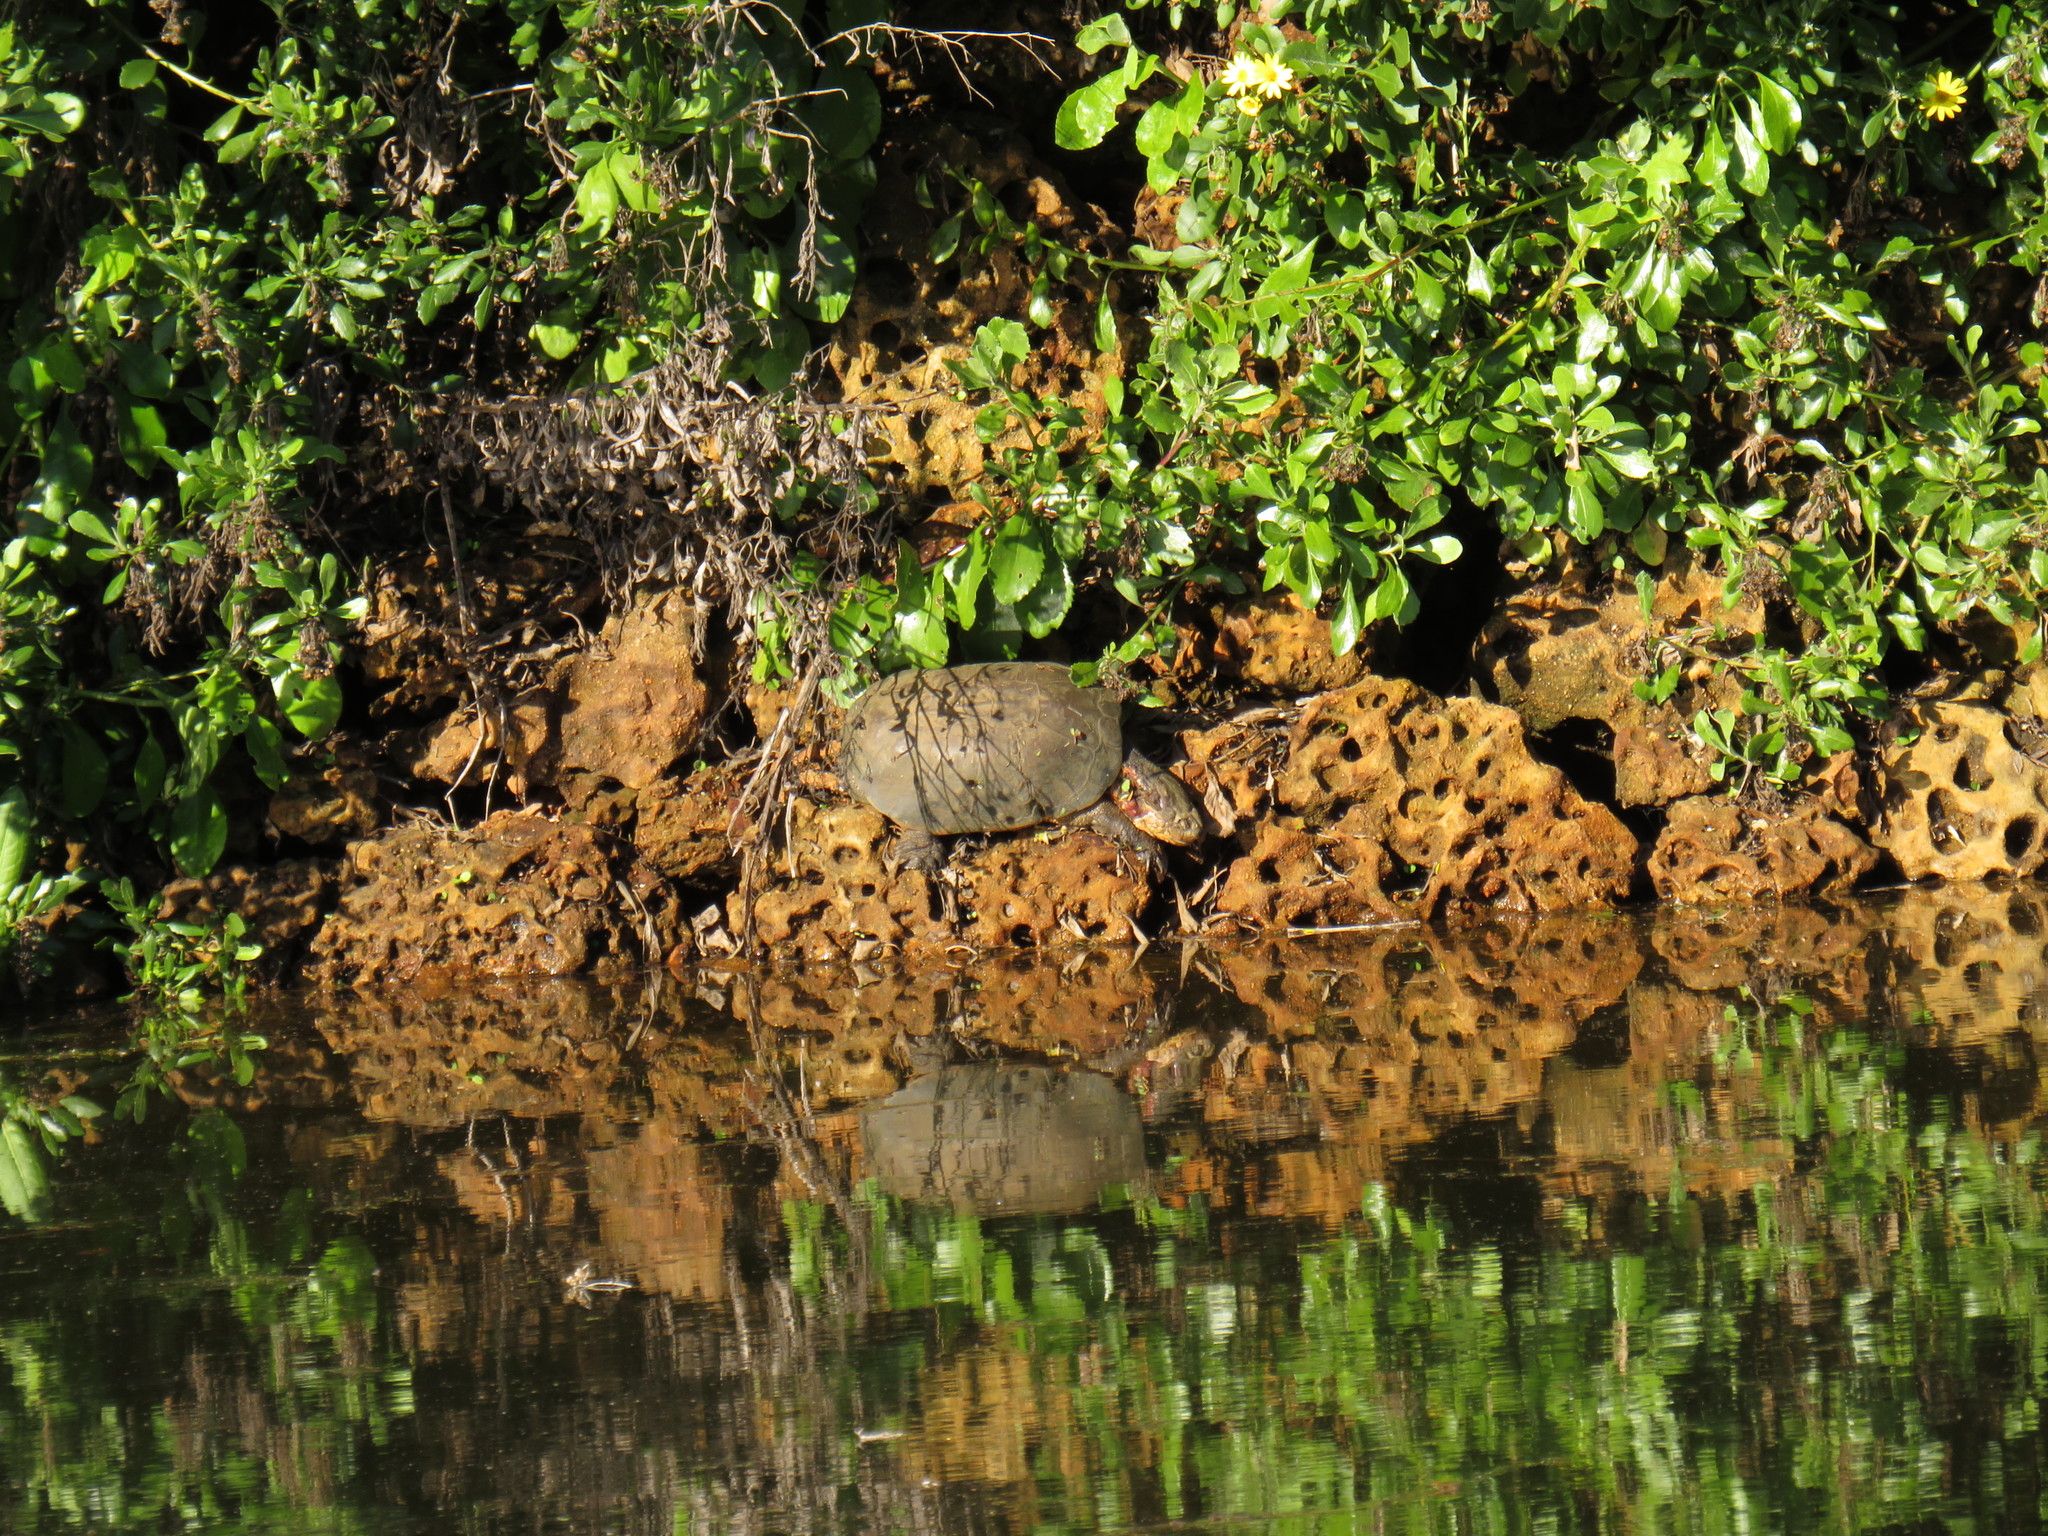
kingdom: Animalia
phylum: Chordata
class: Testudines
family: Pelomedusidae
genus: Pelomedusa
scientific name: Pelomedusa galeata
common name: South african helmeted terrapin
